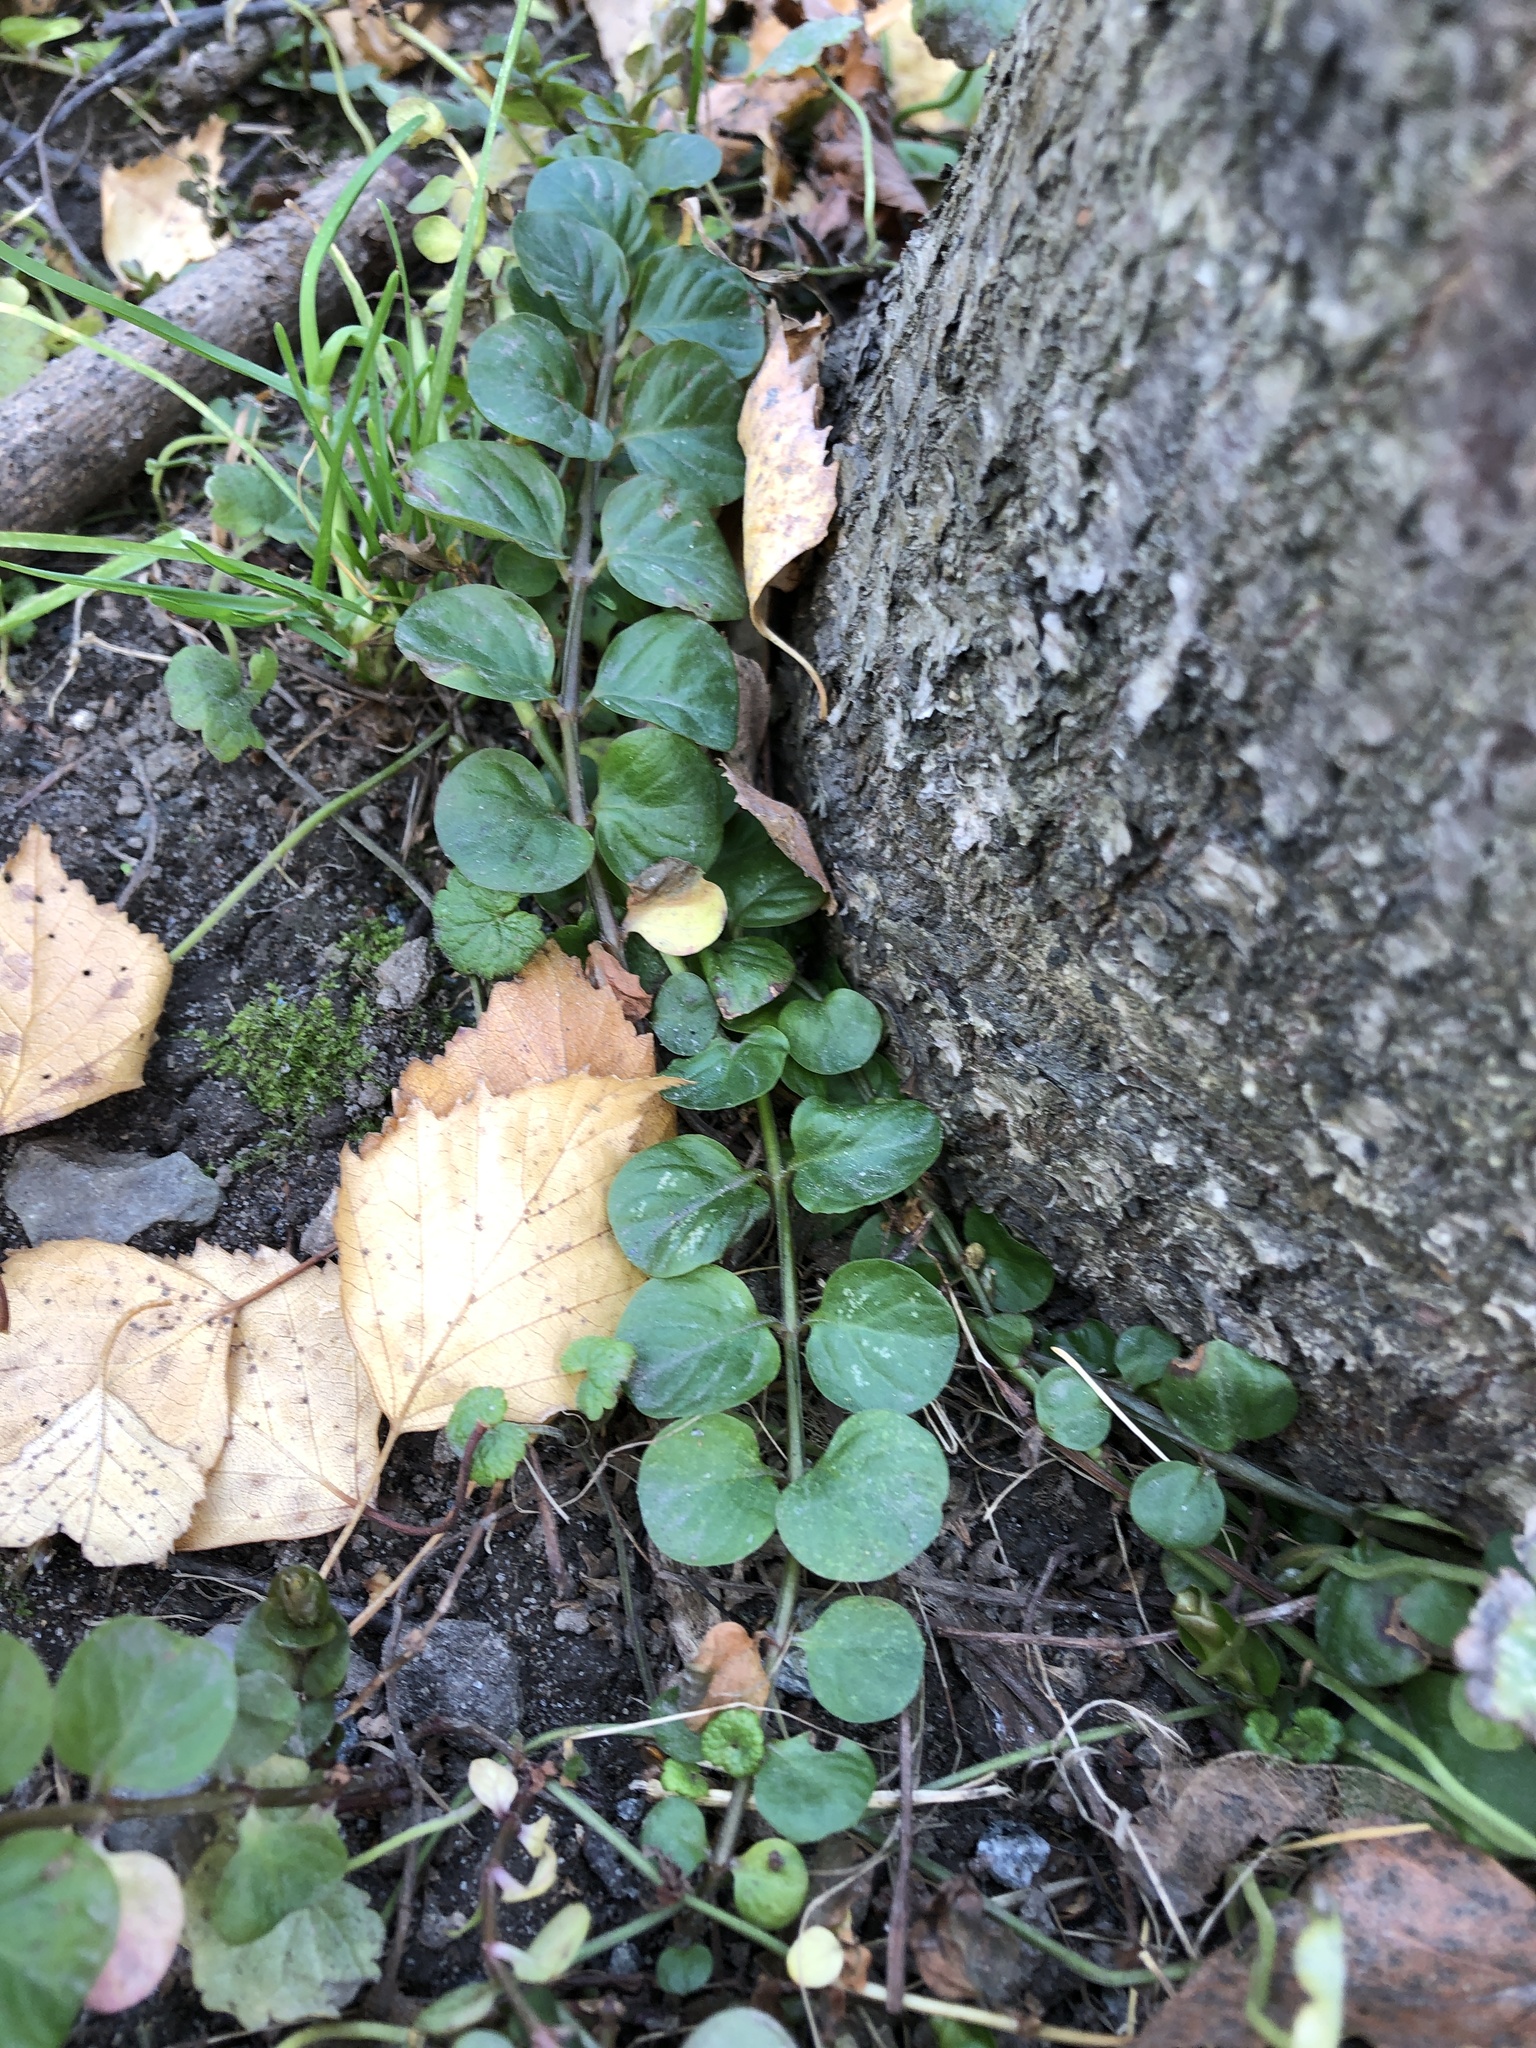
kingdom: Plantae
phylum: Tracheophyta
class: Magnoliopsida
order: Ericales
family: Primulaceae
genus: Lysimachia
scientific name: Lysimachia nummularia
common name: Moneywort
